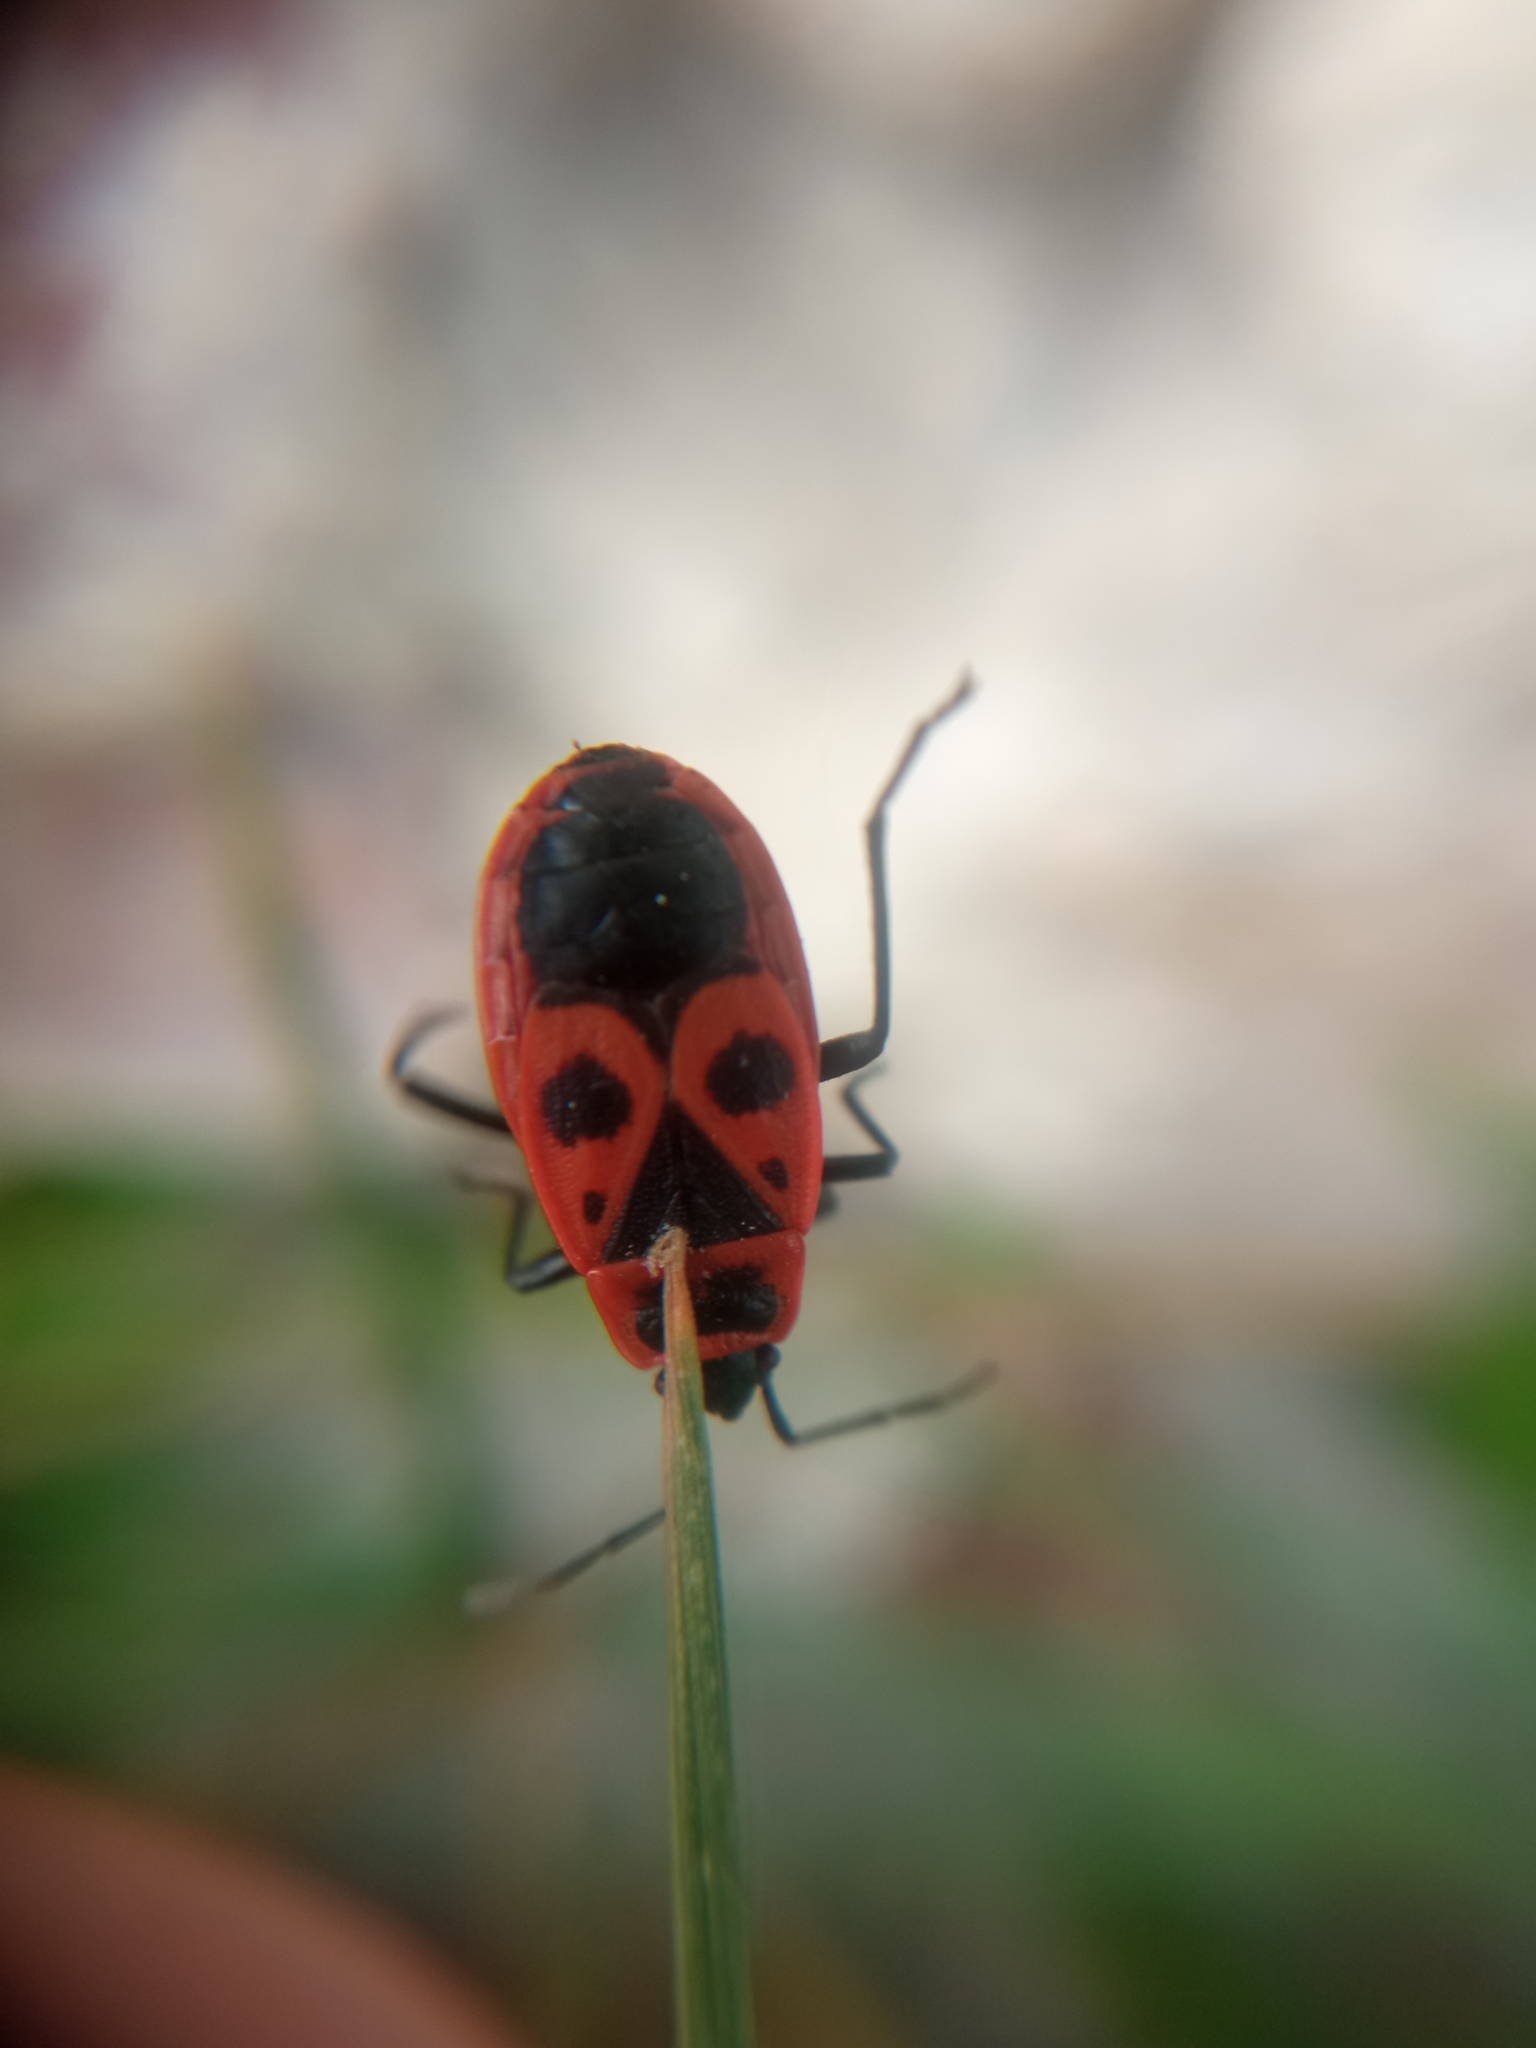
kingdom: Animalia
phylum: Arthropoda
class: Insecta
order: Hemiptera
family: Pyrrhocoridae
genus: Pyrrhocoris
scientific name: Pyrrhocoris apterus
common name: Firebug
